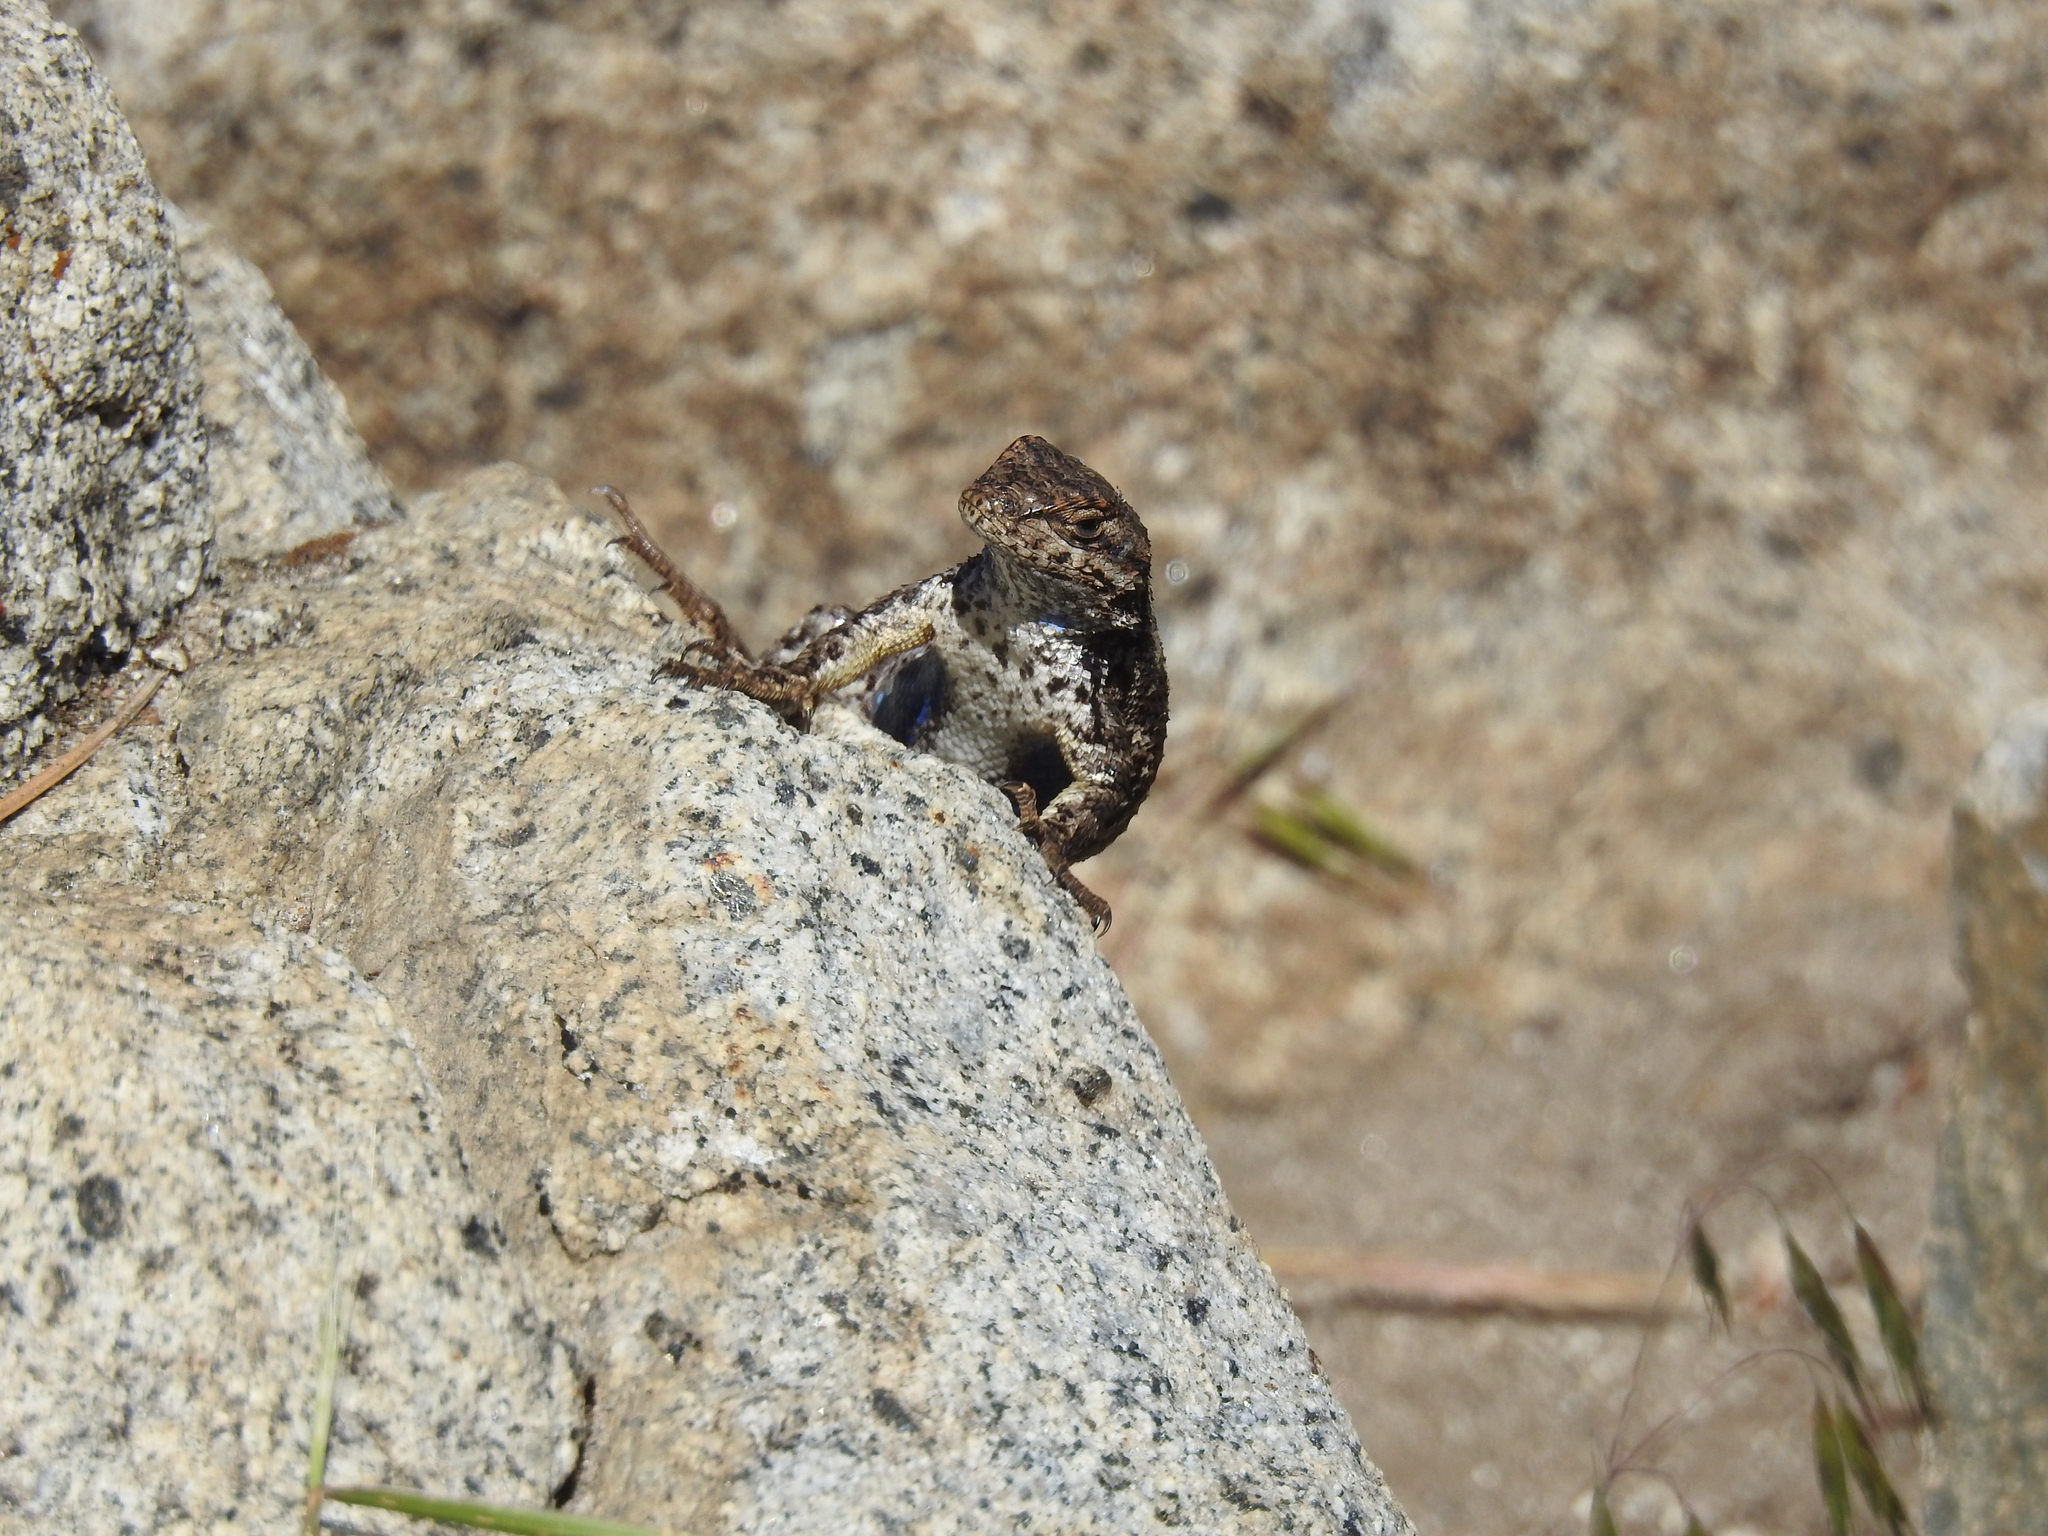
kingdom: Animalia
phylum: Chordata
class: Squamata
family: Phrynosomatidae
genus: Sceloporus
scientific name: Sceloporus occidentalis
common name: Western fence lizard
